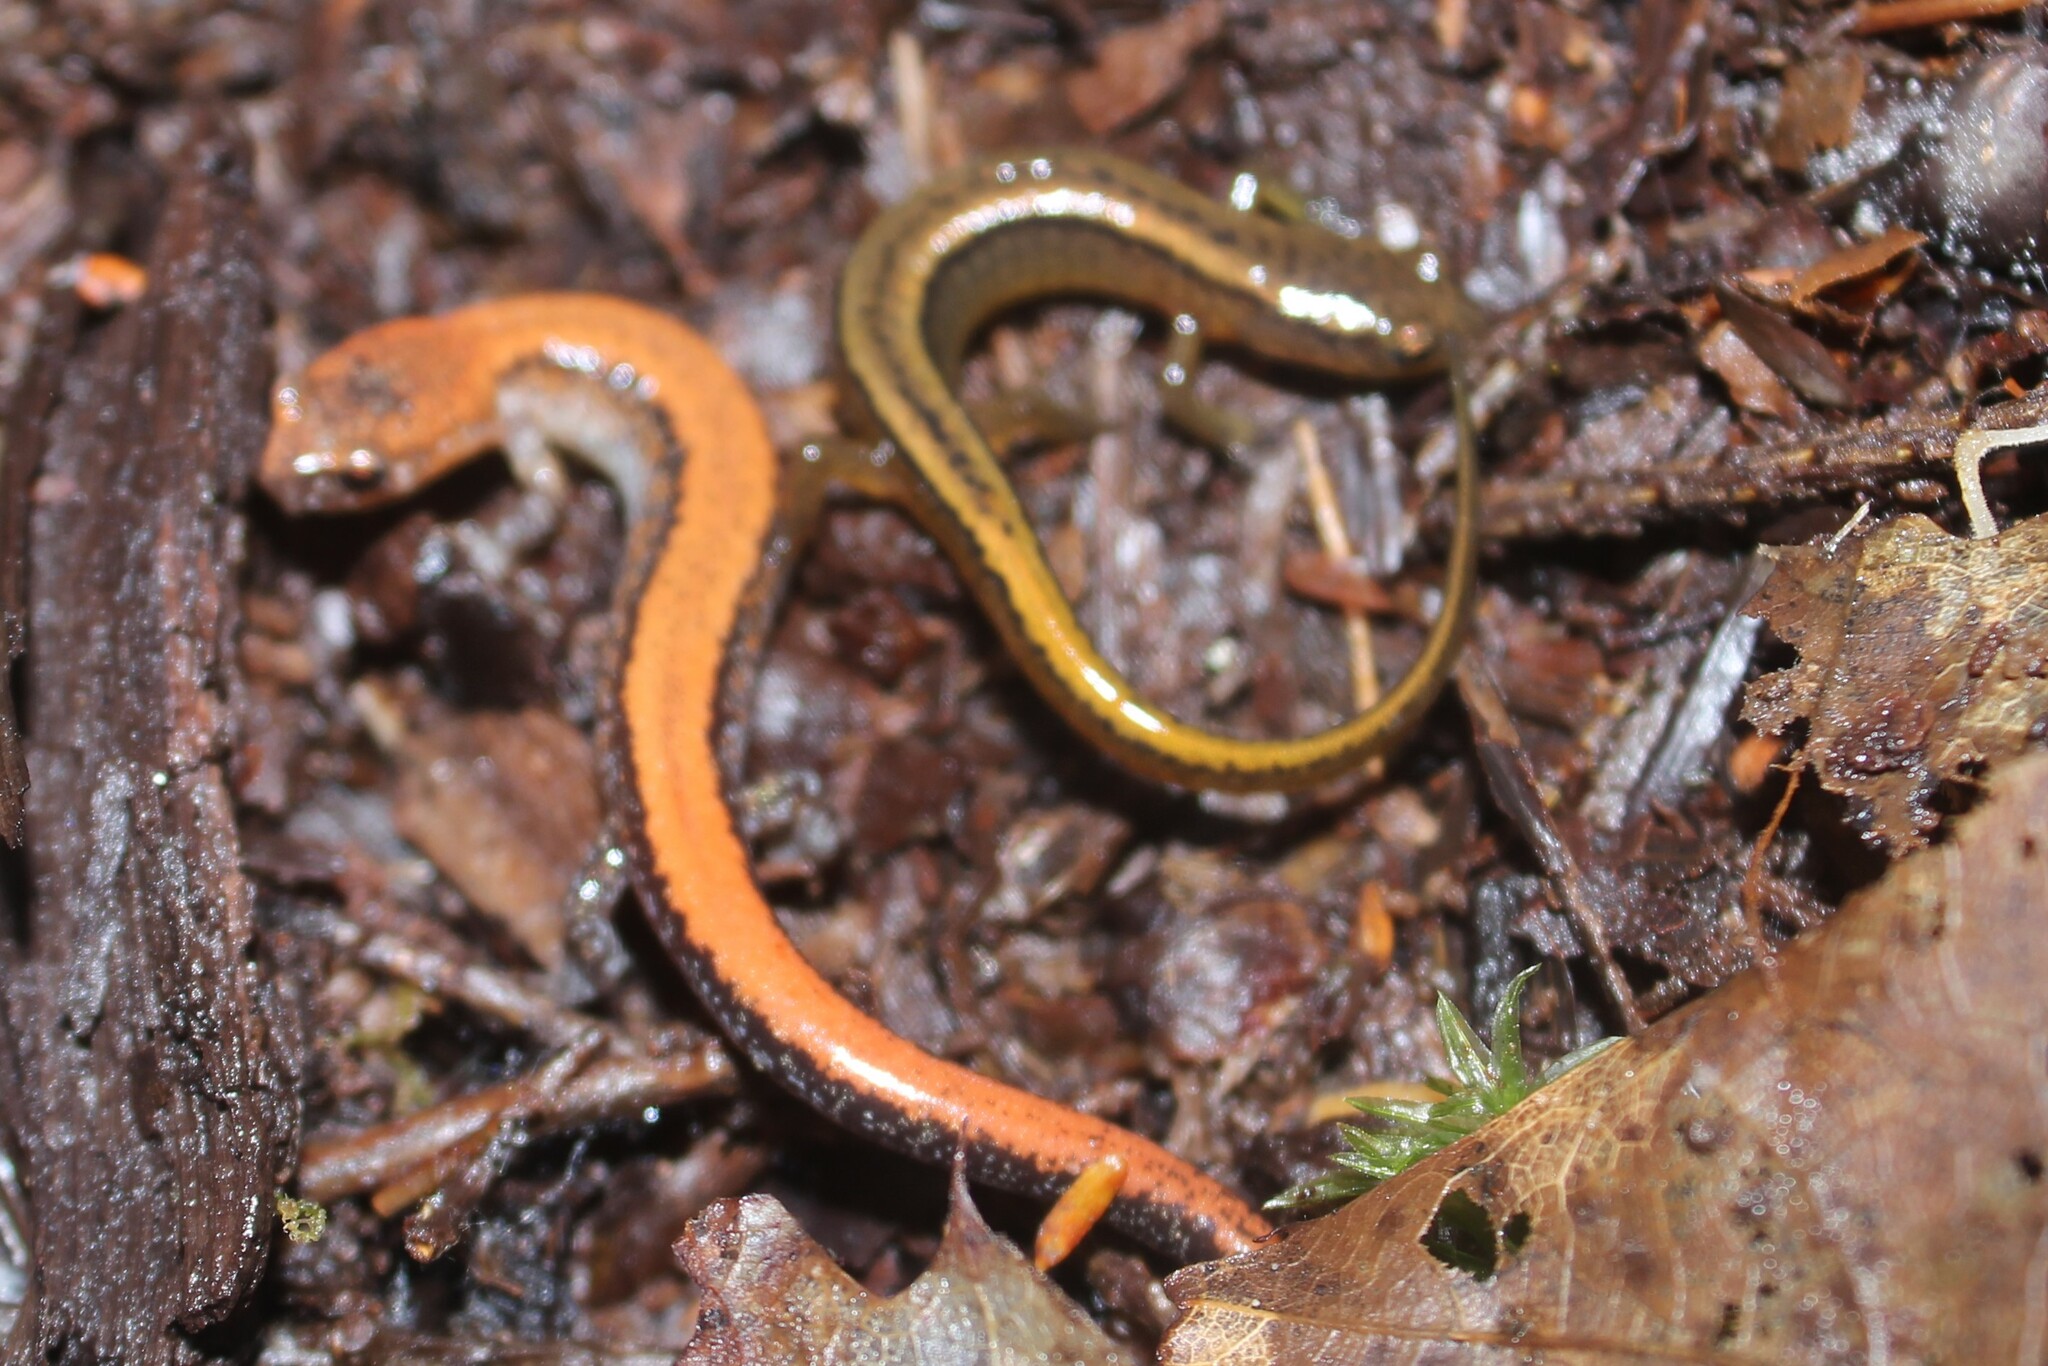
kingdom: Animalia
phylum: Chordata
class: Amphibia
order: Caudata
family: Plethodontidae
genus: Plethodon
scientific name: Plethodon cinereus
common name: Redback salamander
